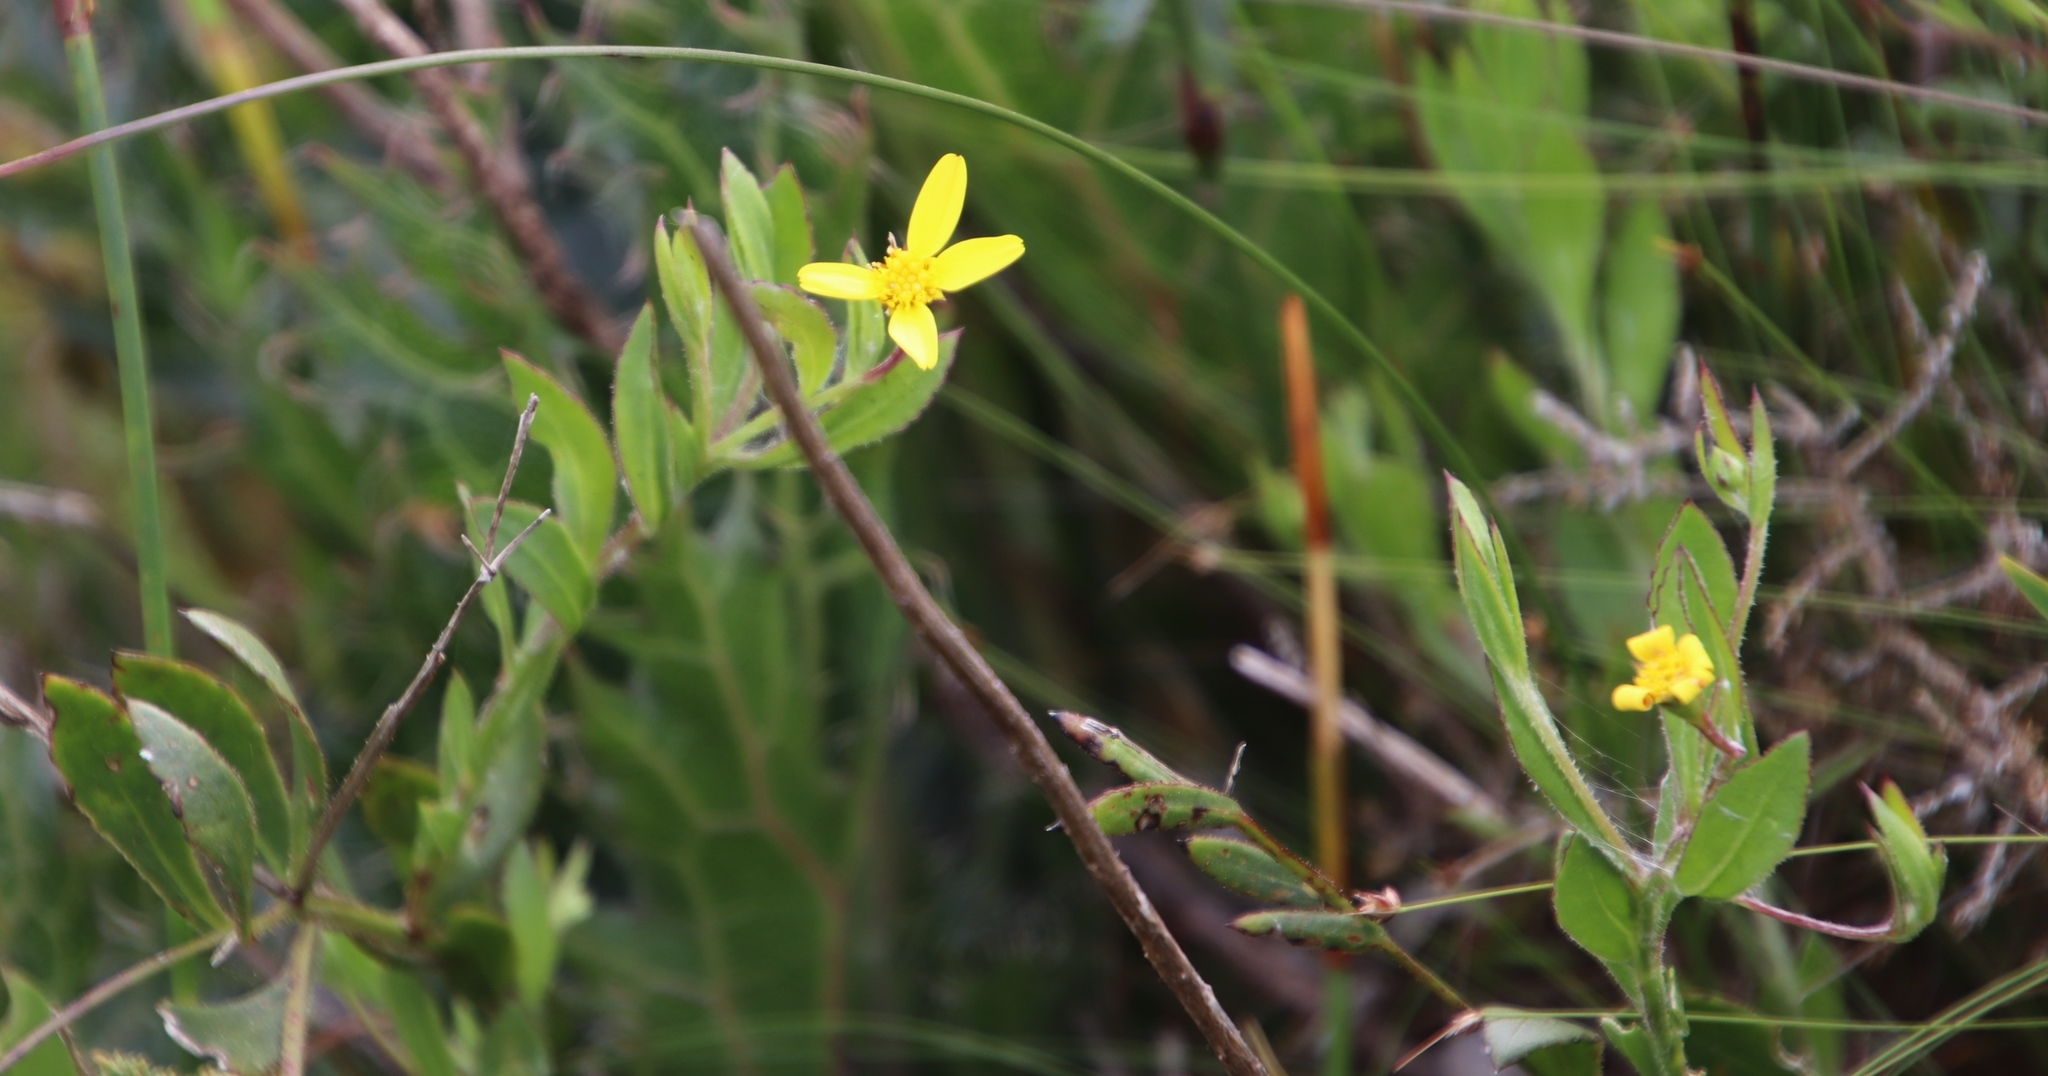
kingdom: Plantae
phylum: Tracheophyta
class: Magnoliopsida
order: Asterales
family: Asteraceae
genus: Osteospermum
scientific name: Osteospermum ciliatum
